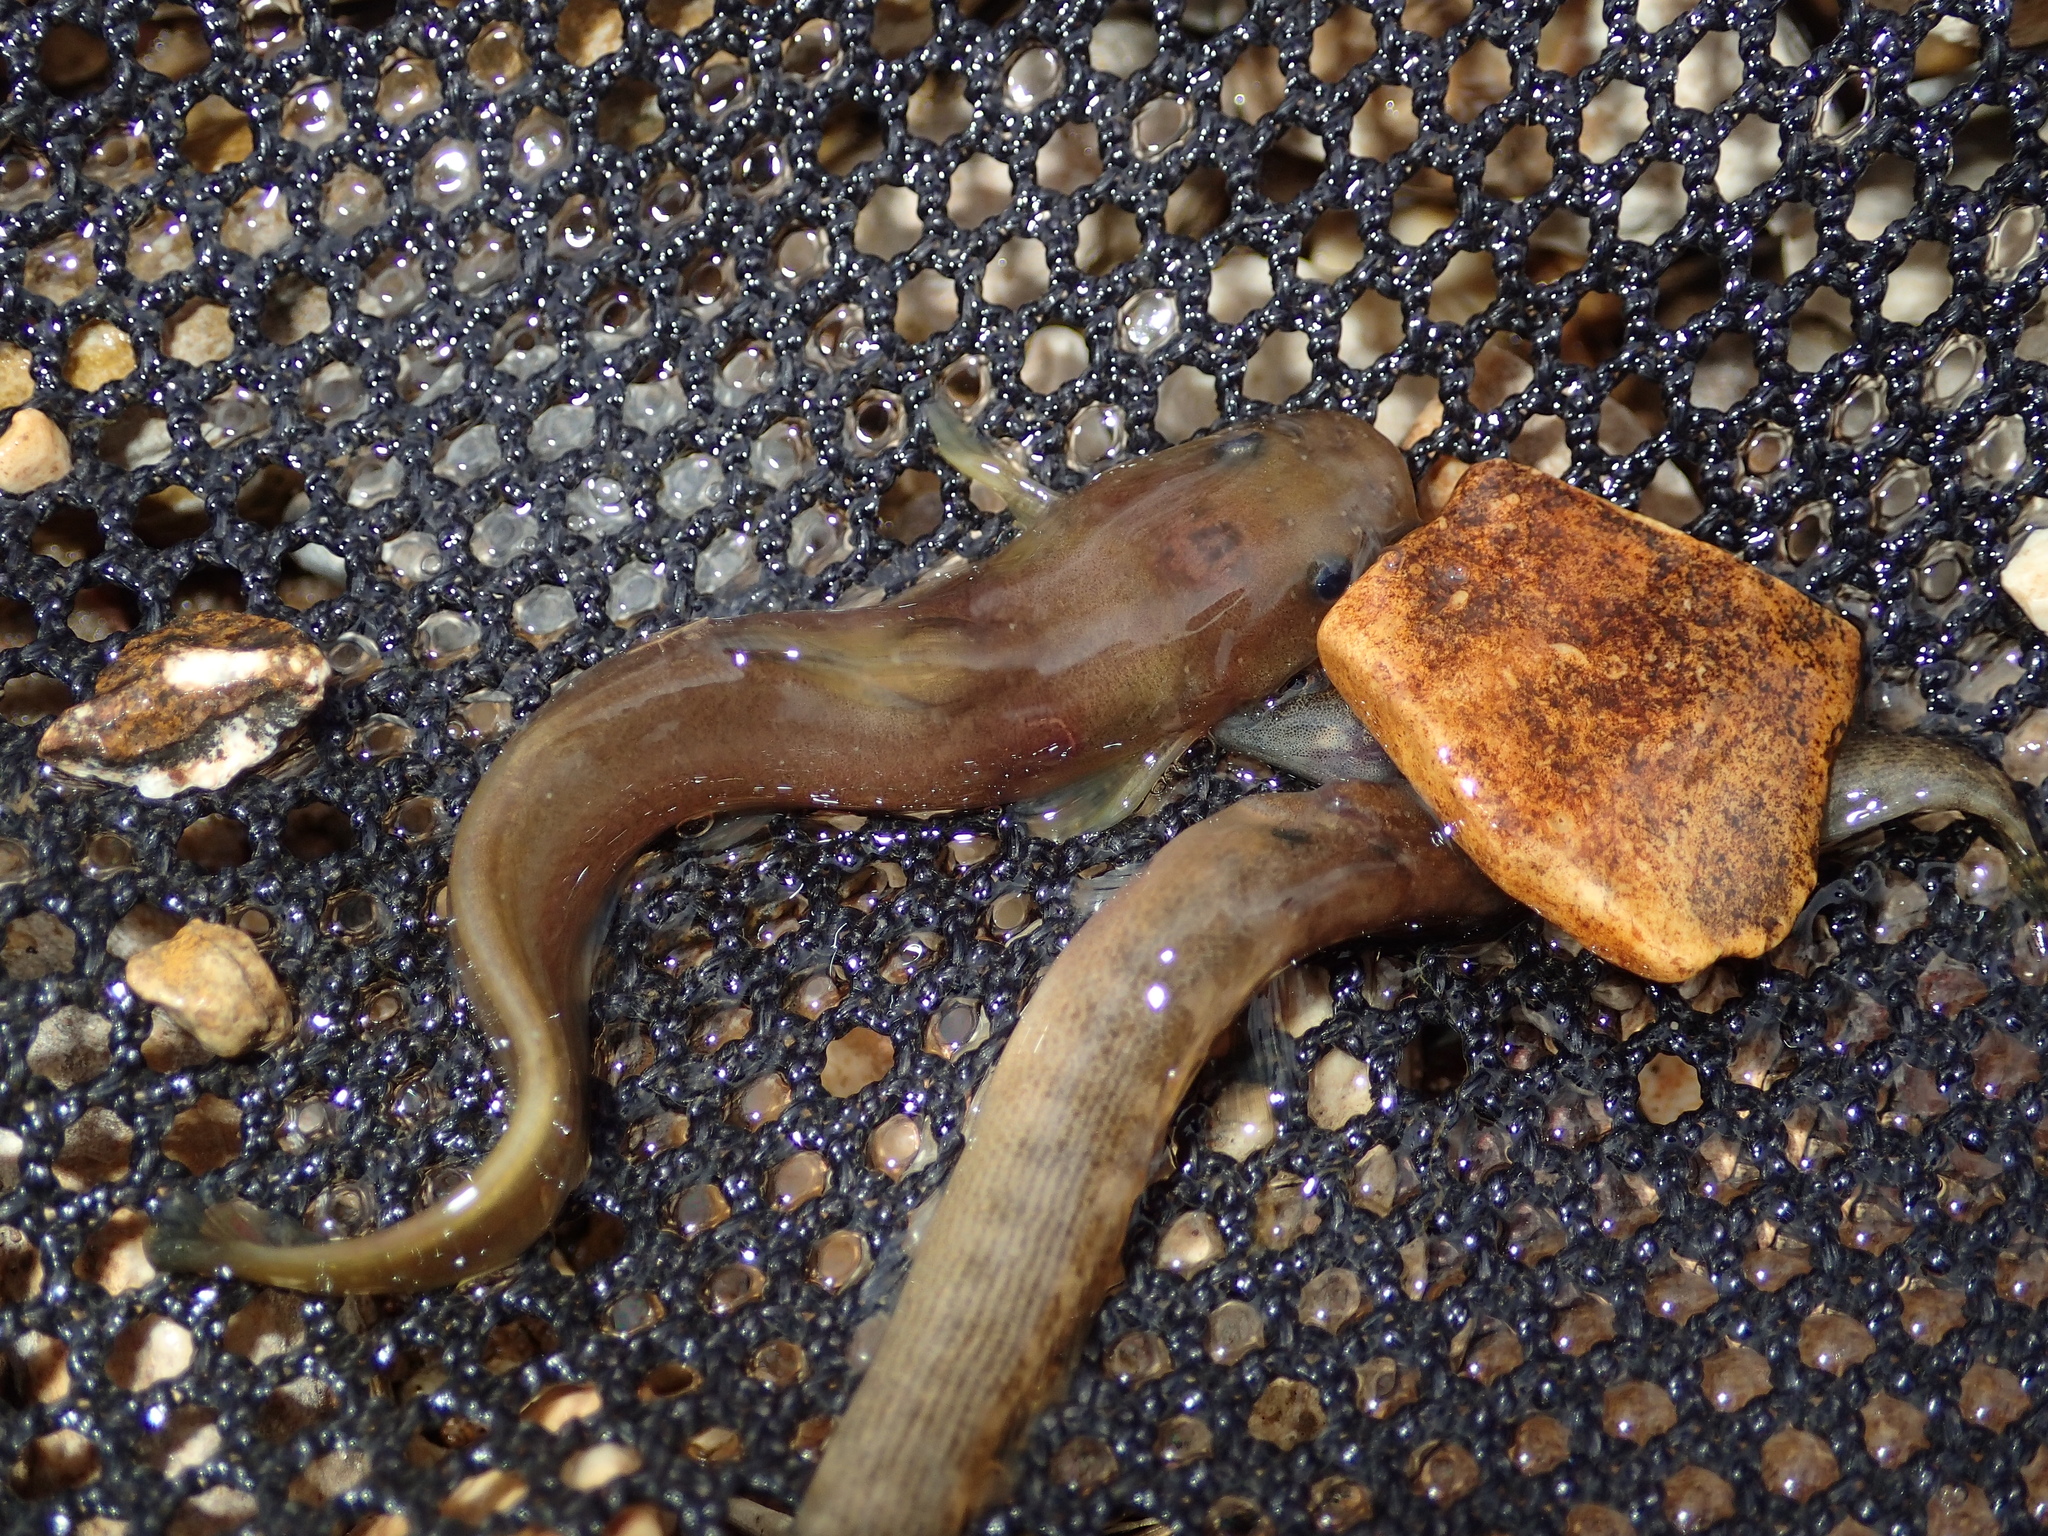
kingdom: Animalia
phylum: Chordata
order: Siluriformes
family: Ictaluridae
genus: Noturus
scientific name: Noturus exilis
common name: Slender madtom
